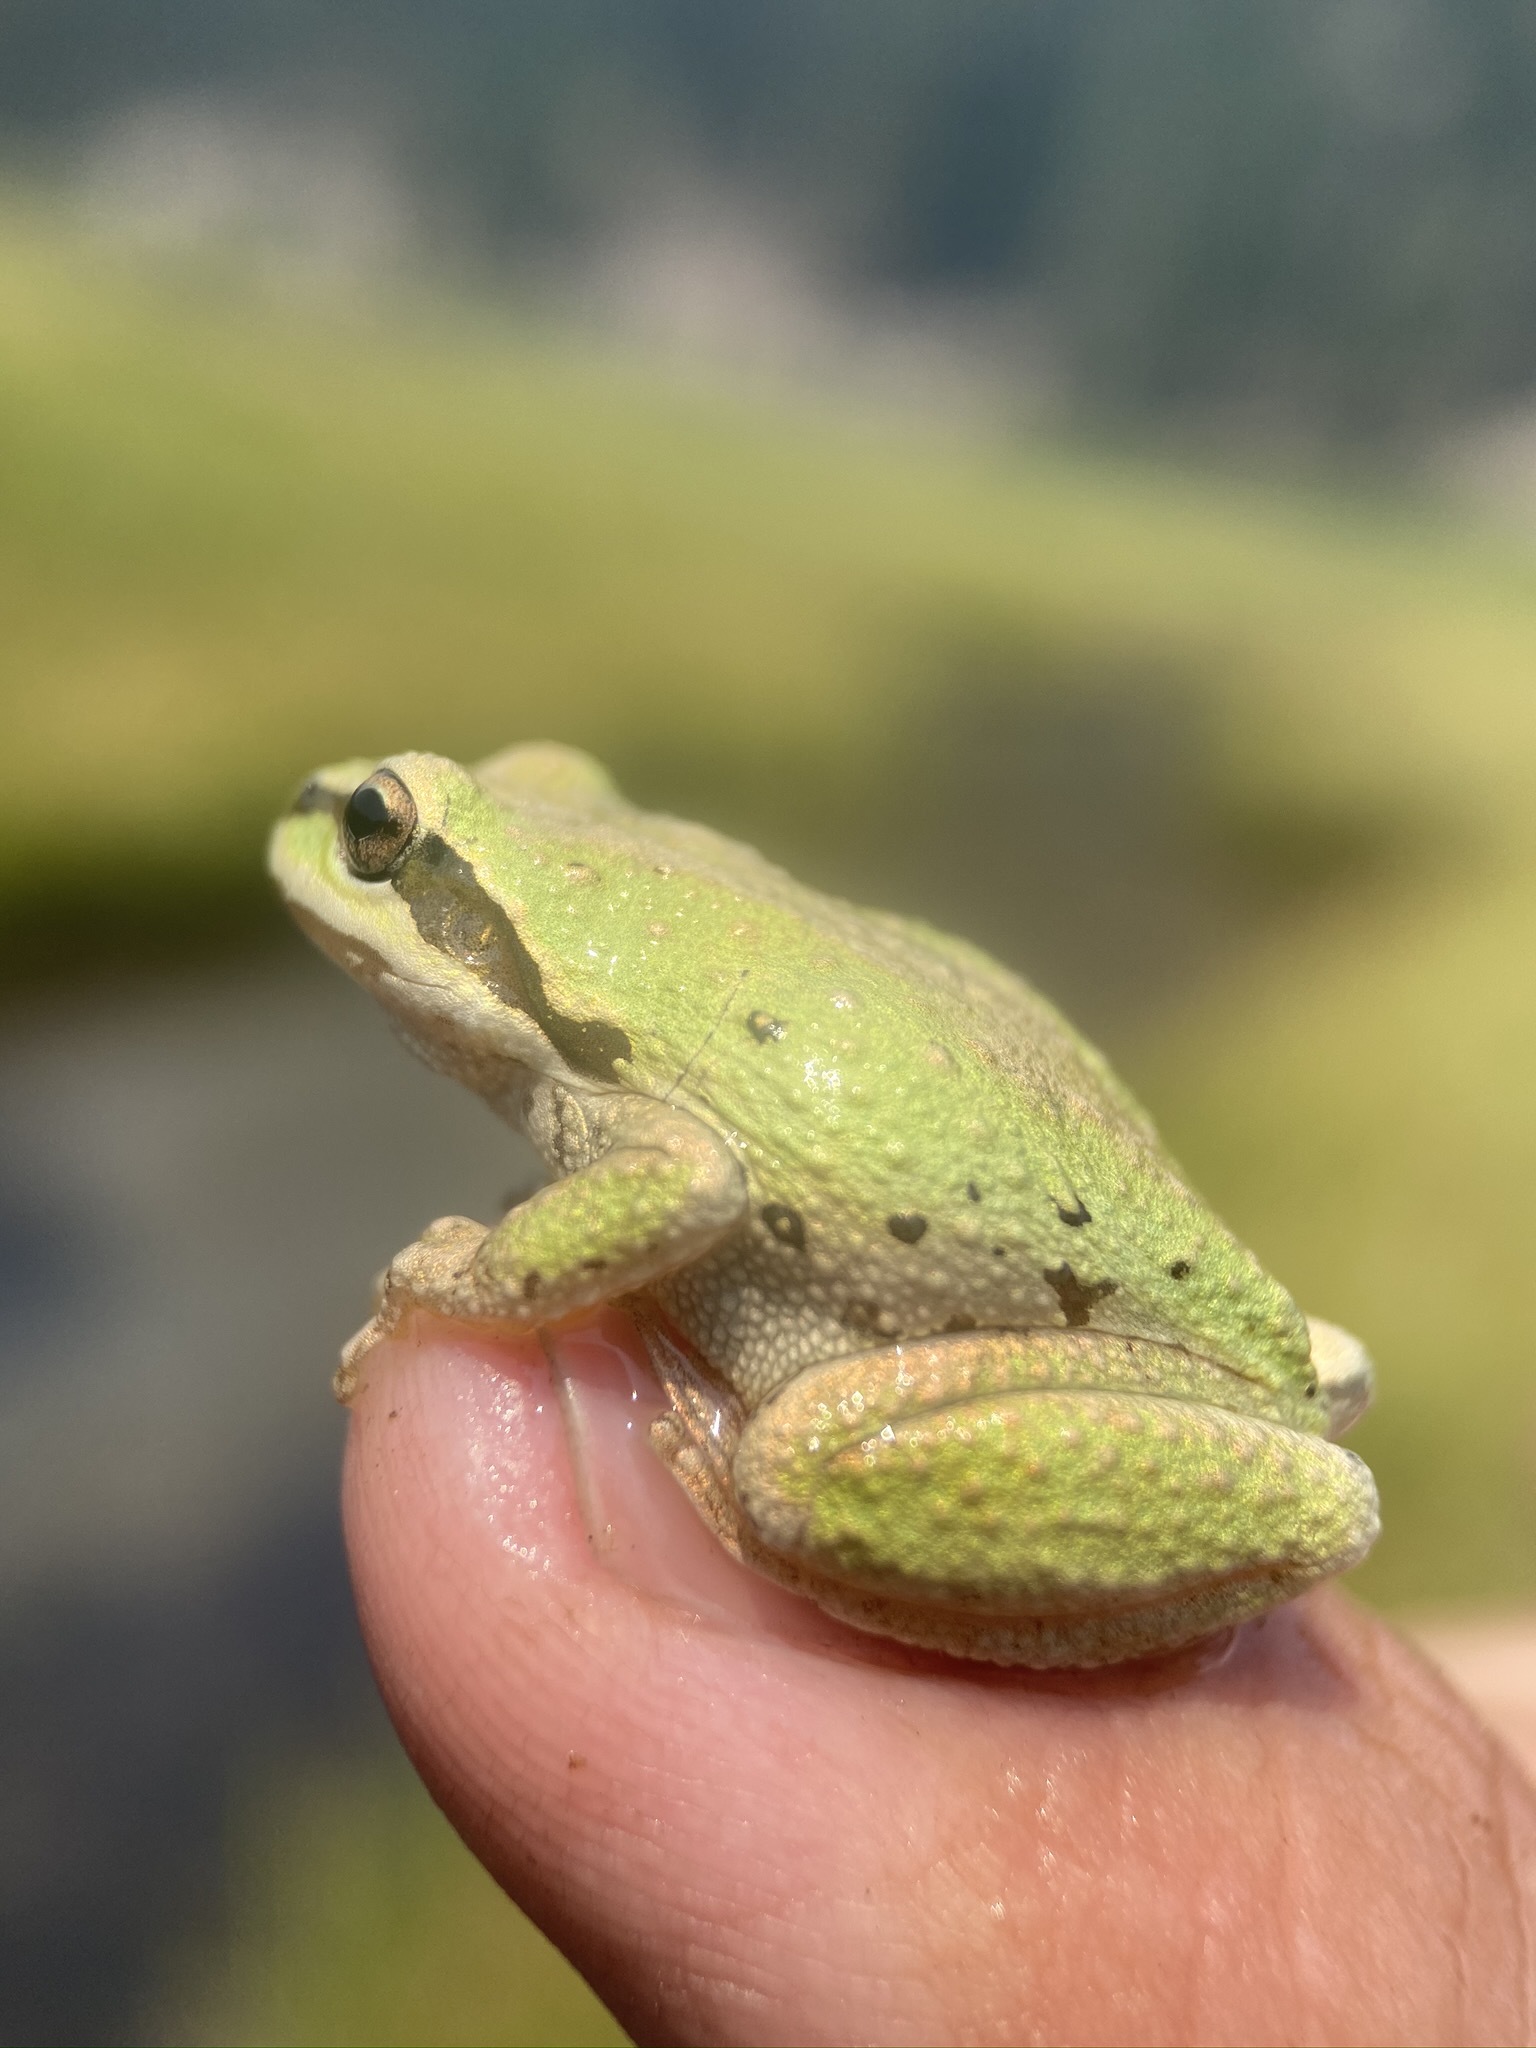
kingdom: Animalia
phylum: Chordata
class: Amphibia
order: Anura
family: Hylidae
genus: Pseudacris
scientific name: Pseudacris regilla
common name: Pacific chorus frog
